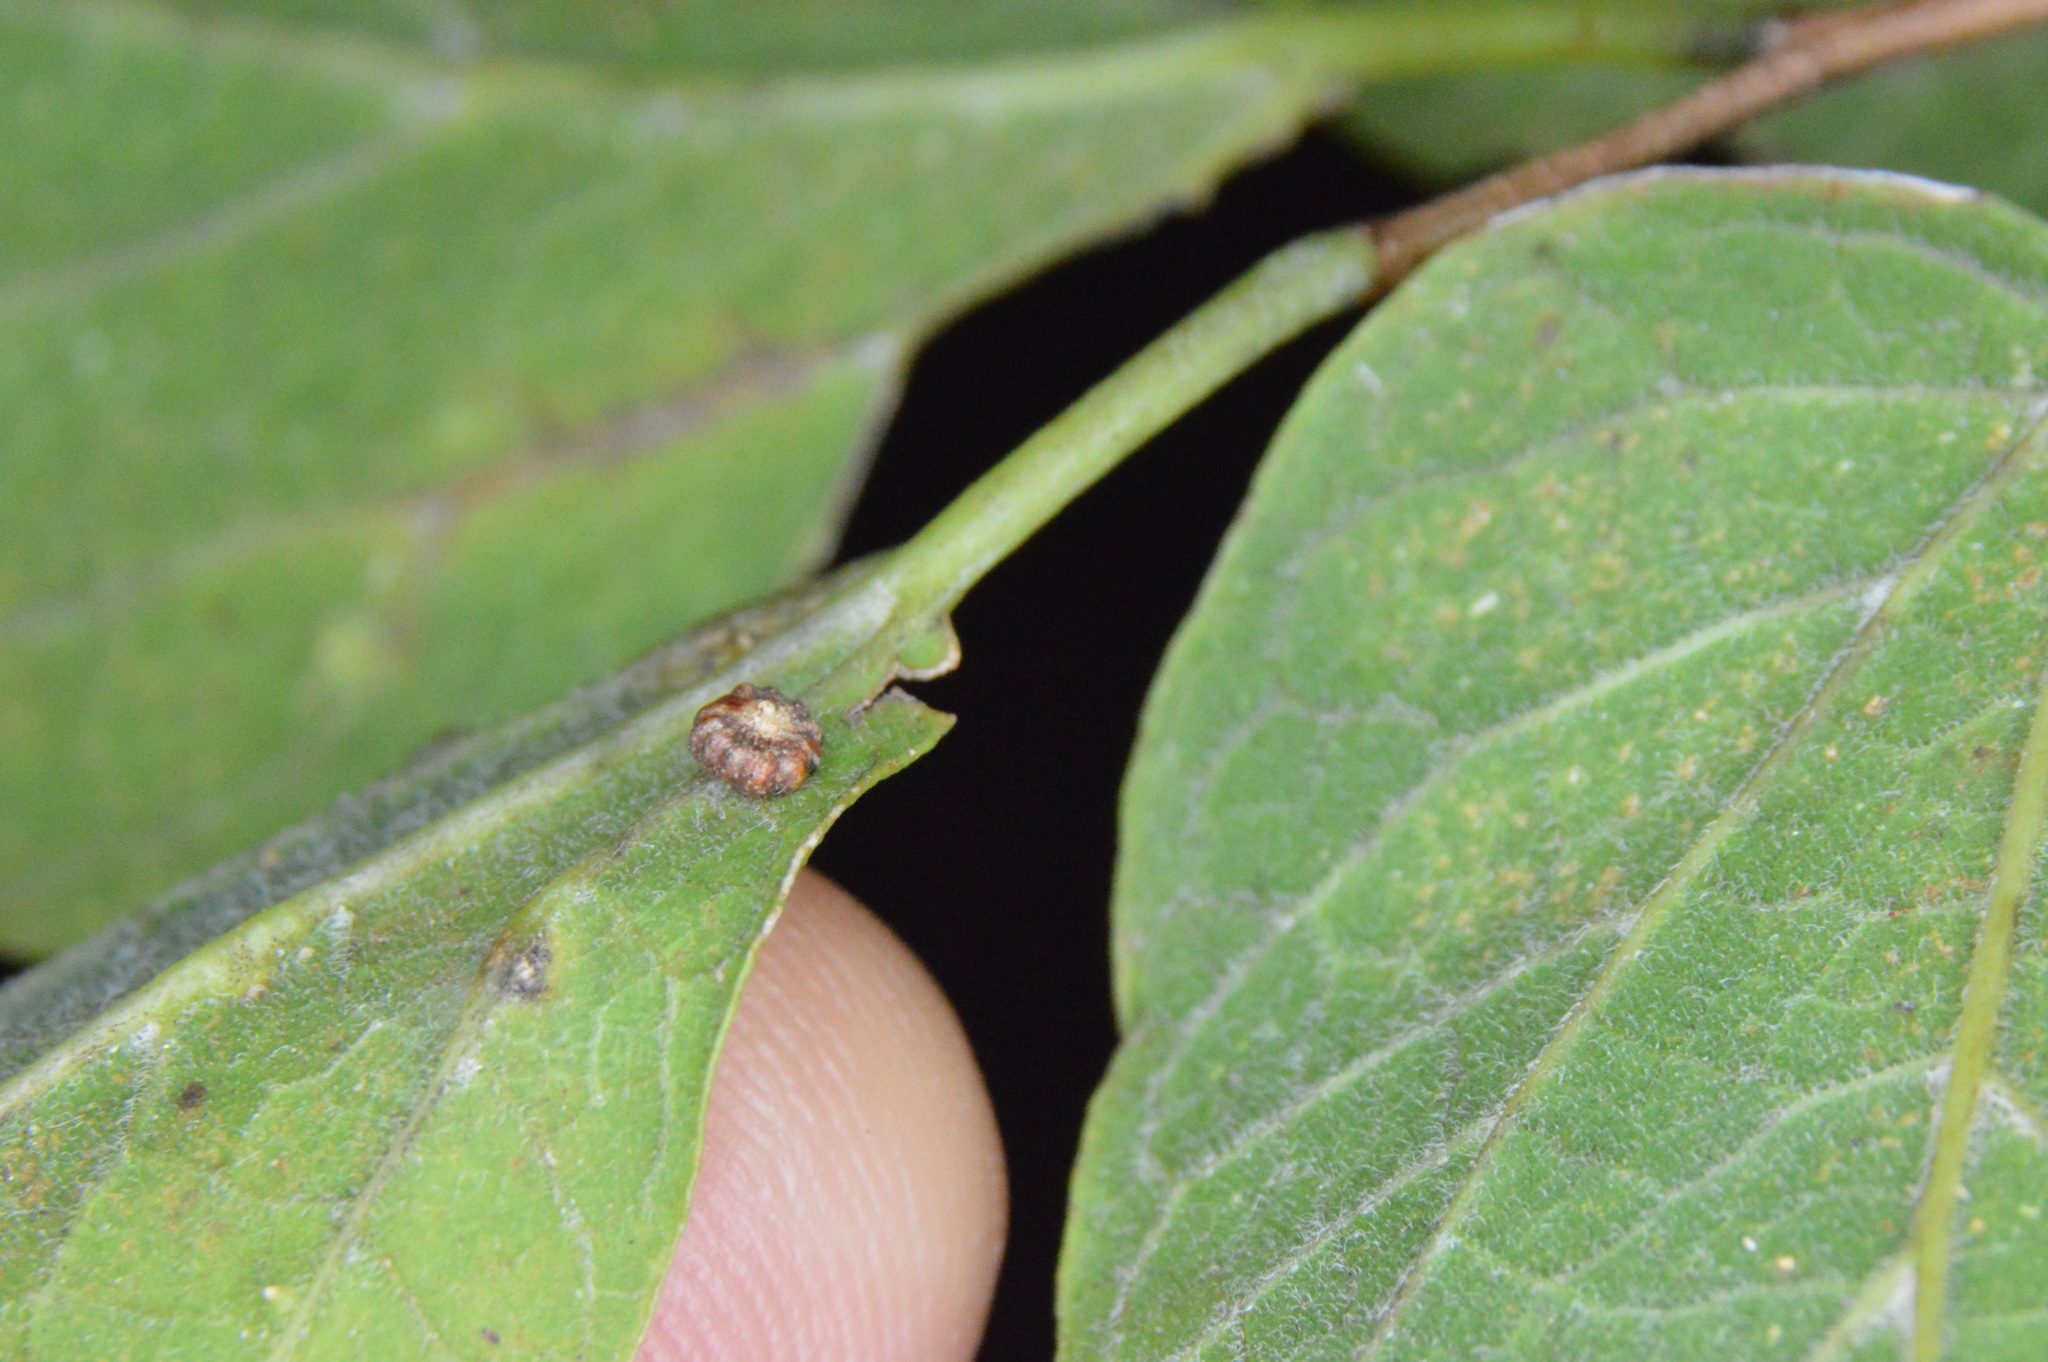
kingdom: Animalia
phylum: Arthropoda
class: Insecta
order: Diptera
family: Cecidomyiidae
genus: Celticecis
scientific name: Celticecis capsularis
